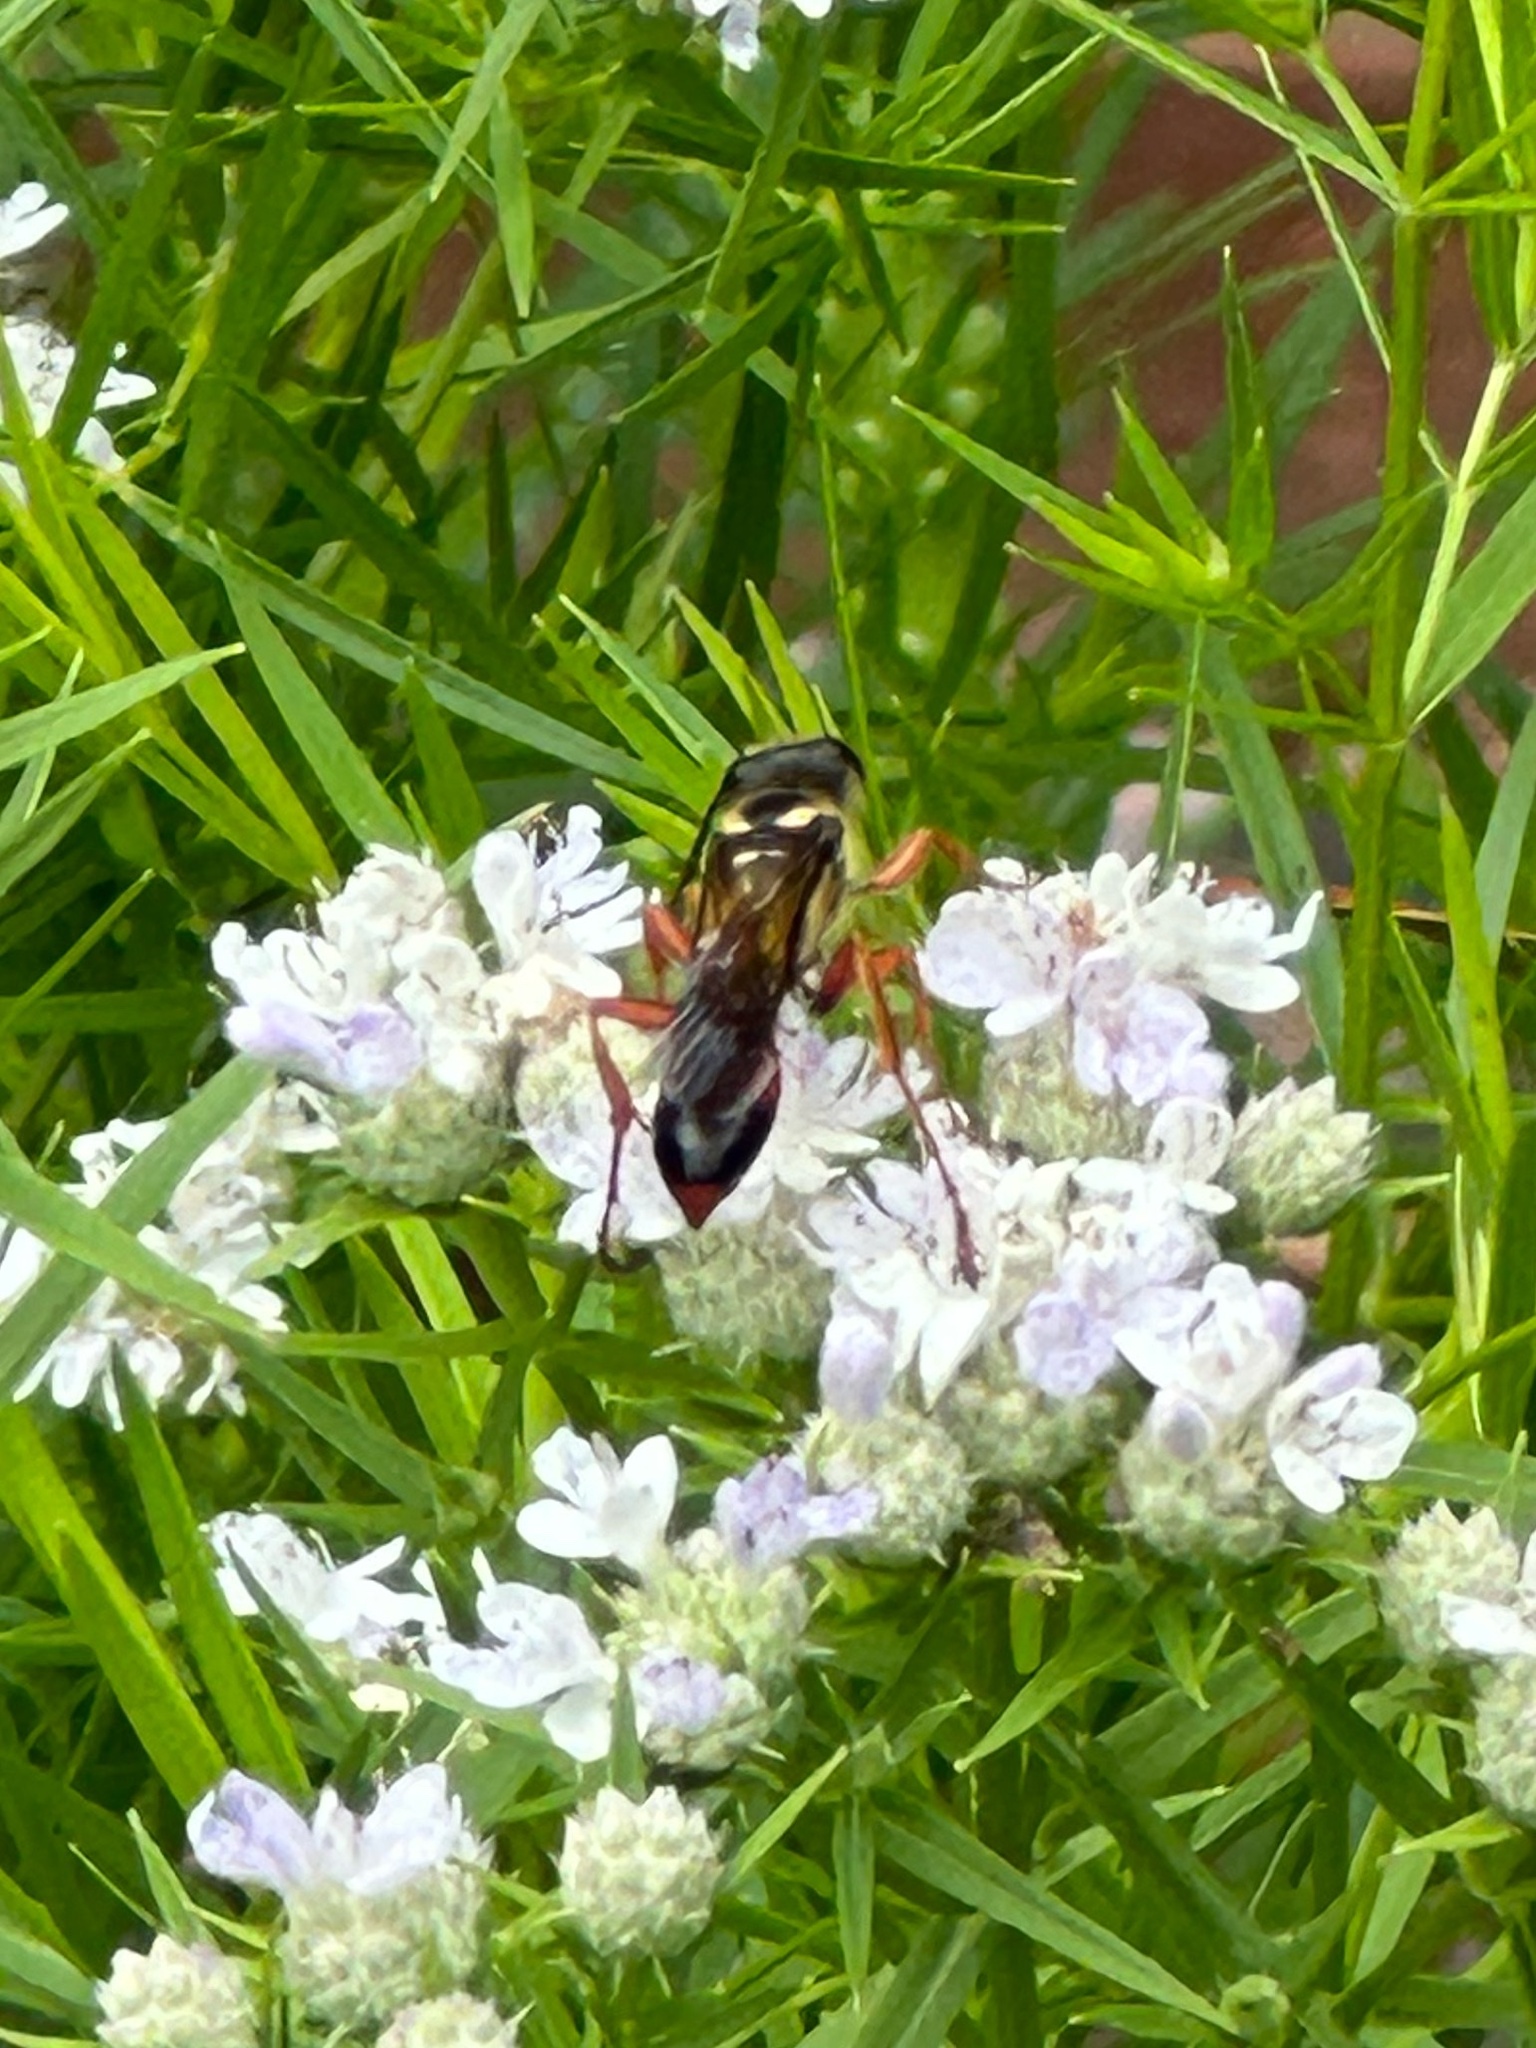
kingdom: Animalia
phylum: Arthropoda
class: Insecta
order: Hymenoptera
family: Sphecidae
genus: Sphex
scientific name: Sphex dorsalis
